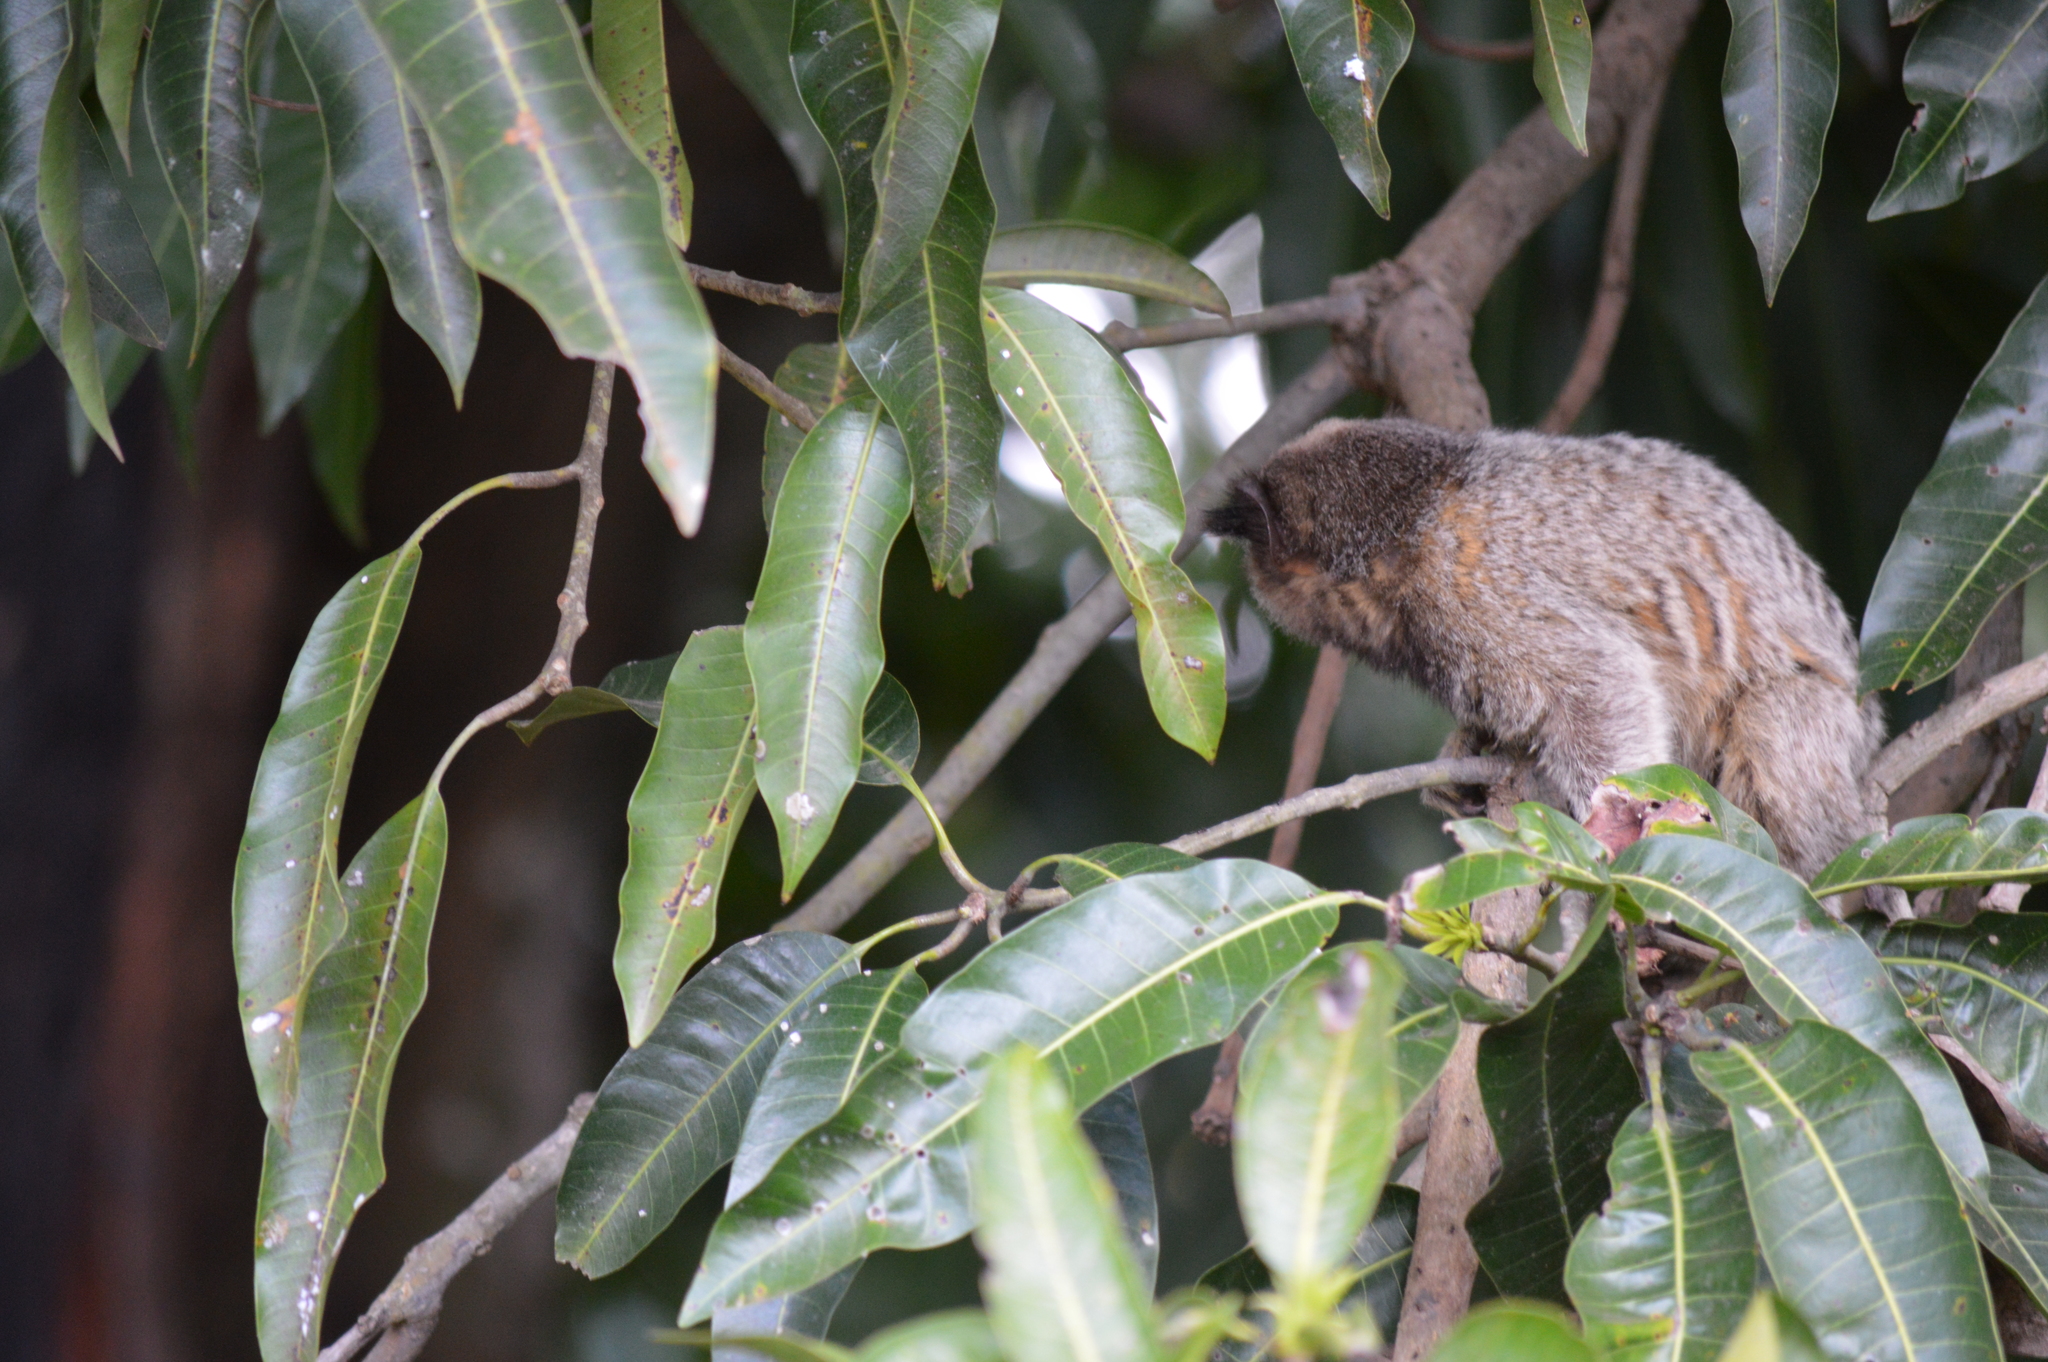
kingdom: Animalia
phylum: Chordata
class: Mammalia
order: Primates
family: Callitrichidae
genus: Callithrix
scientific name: Callithrix penicillata
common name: Black-tufted marmoset
